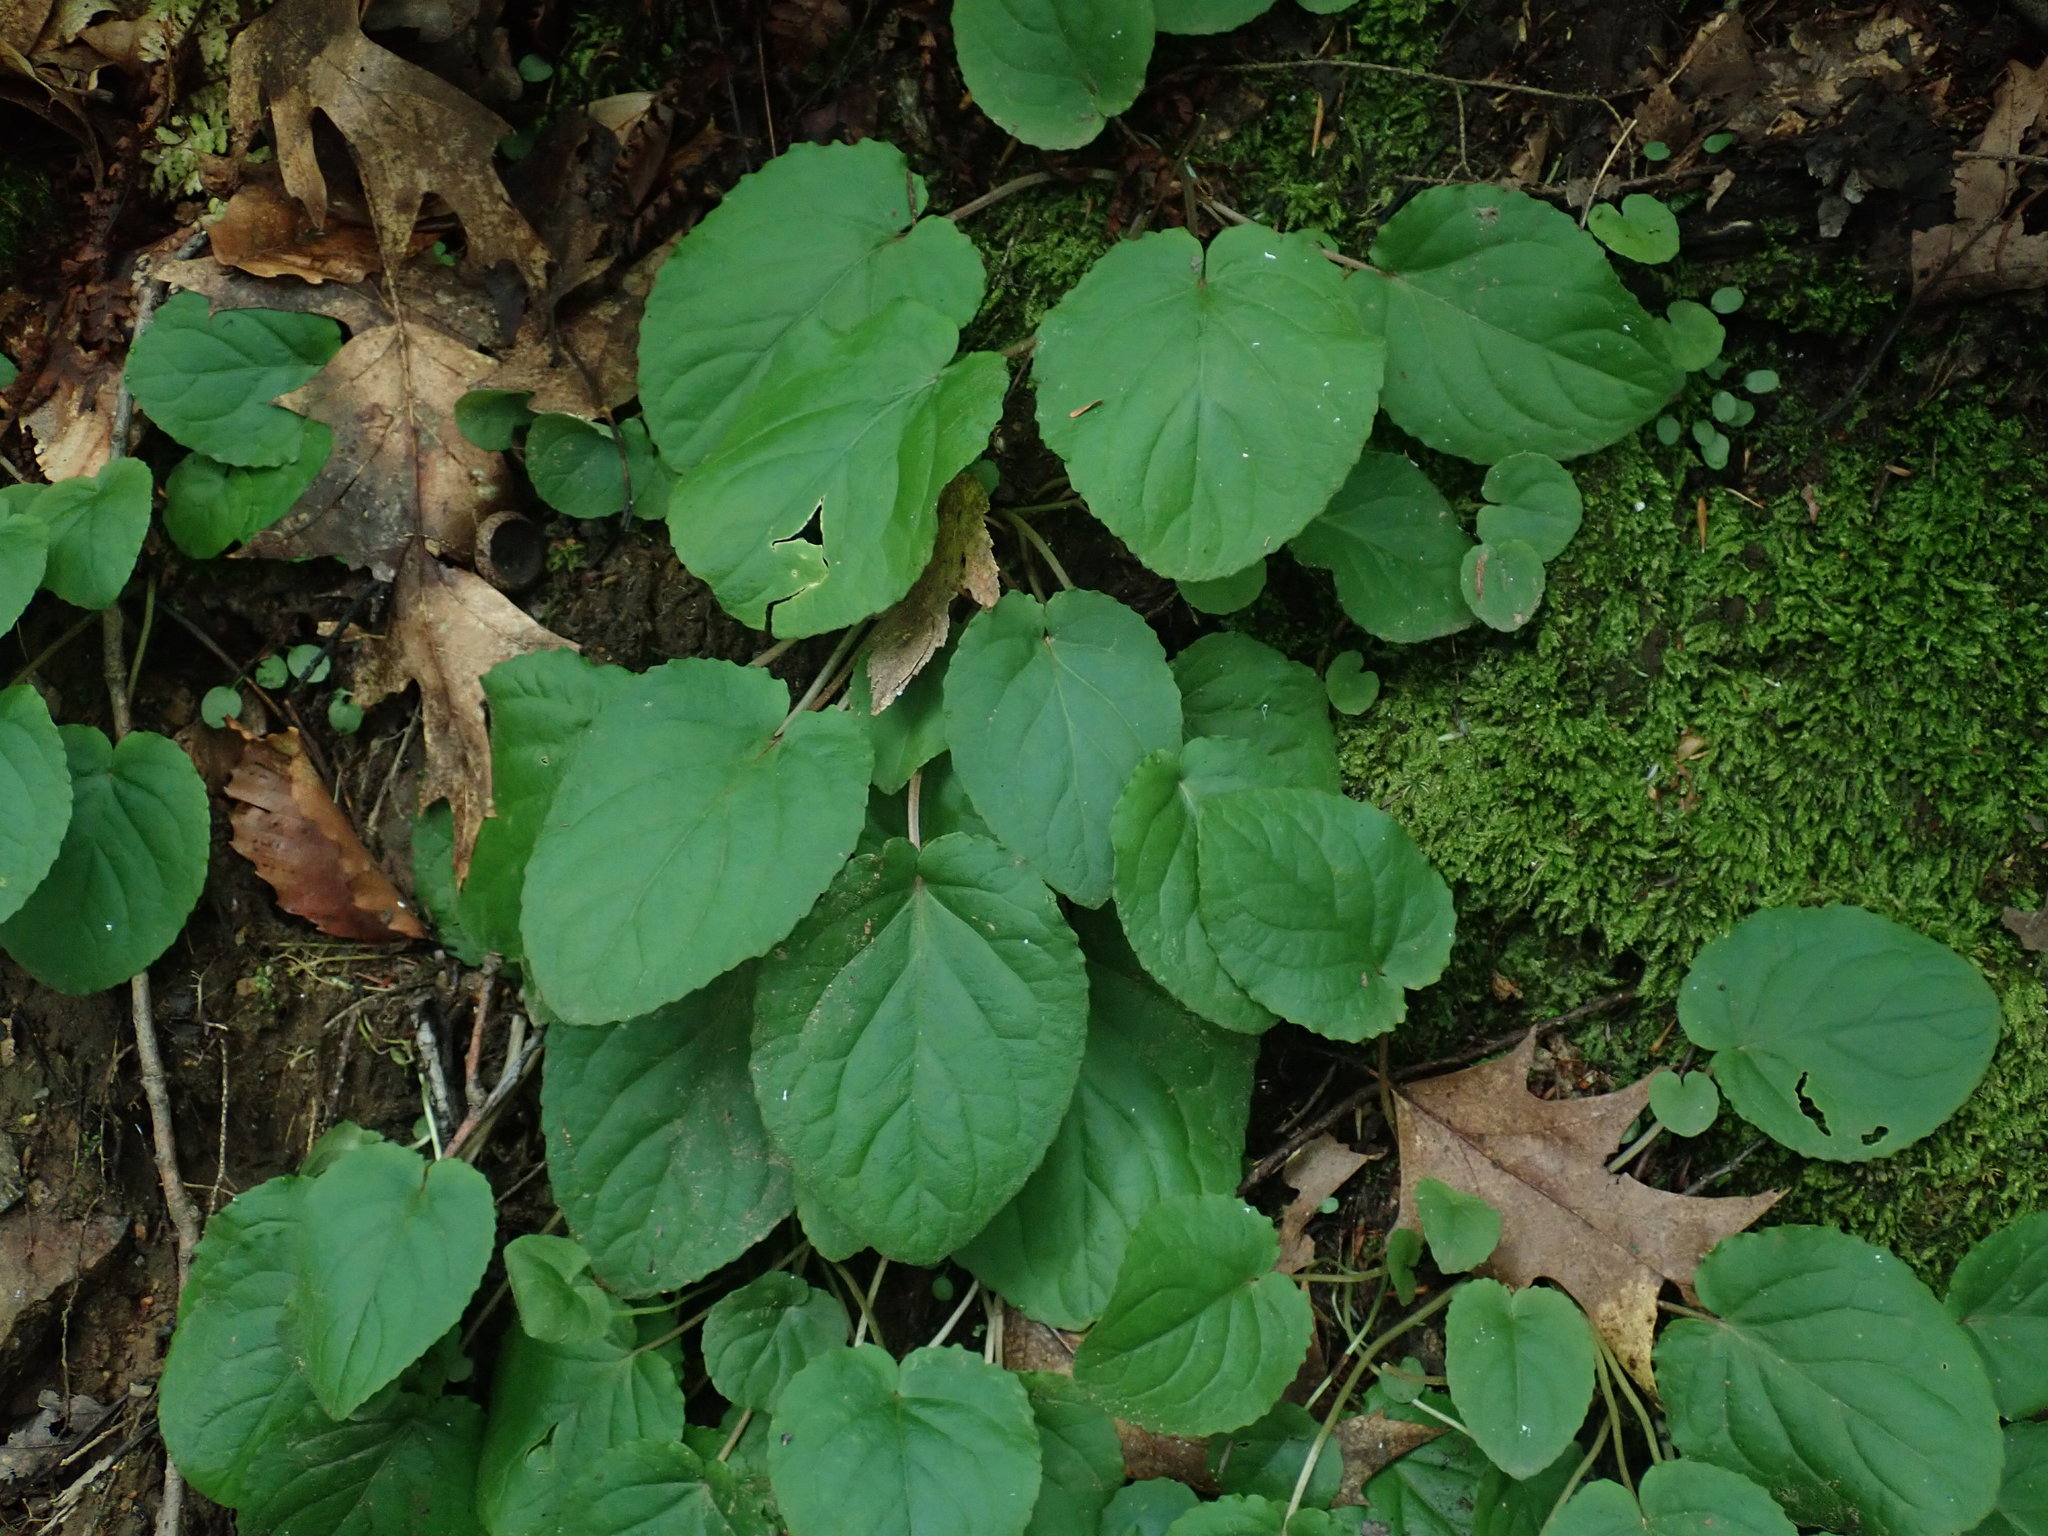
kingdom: Plantae
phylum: Tracheophyta
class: Magnoliopsida
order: Malpighiales
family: Violaceae
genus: Viola
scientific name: Viola rotundifolia
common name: Early yellow violet
